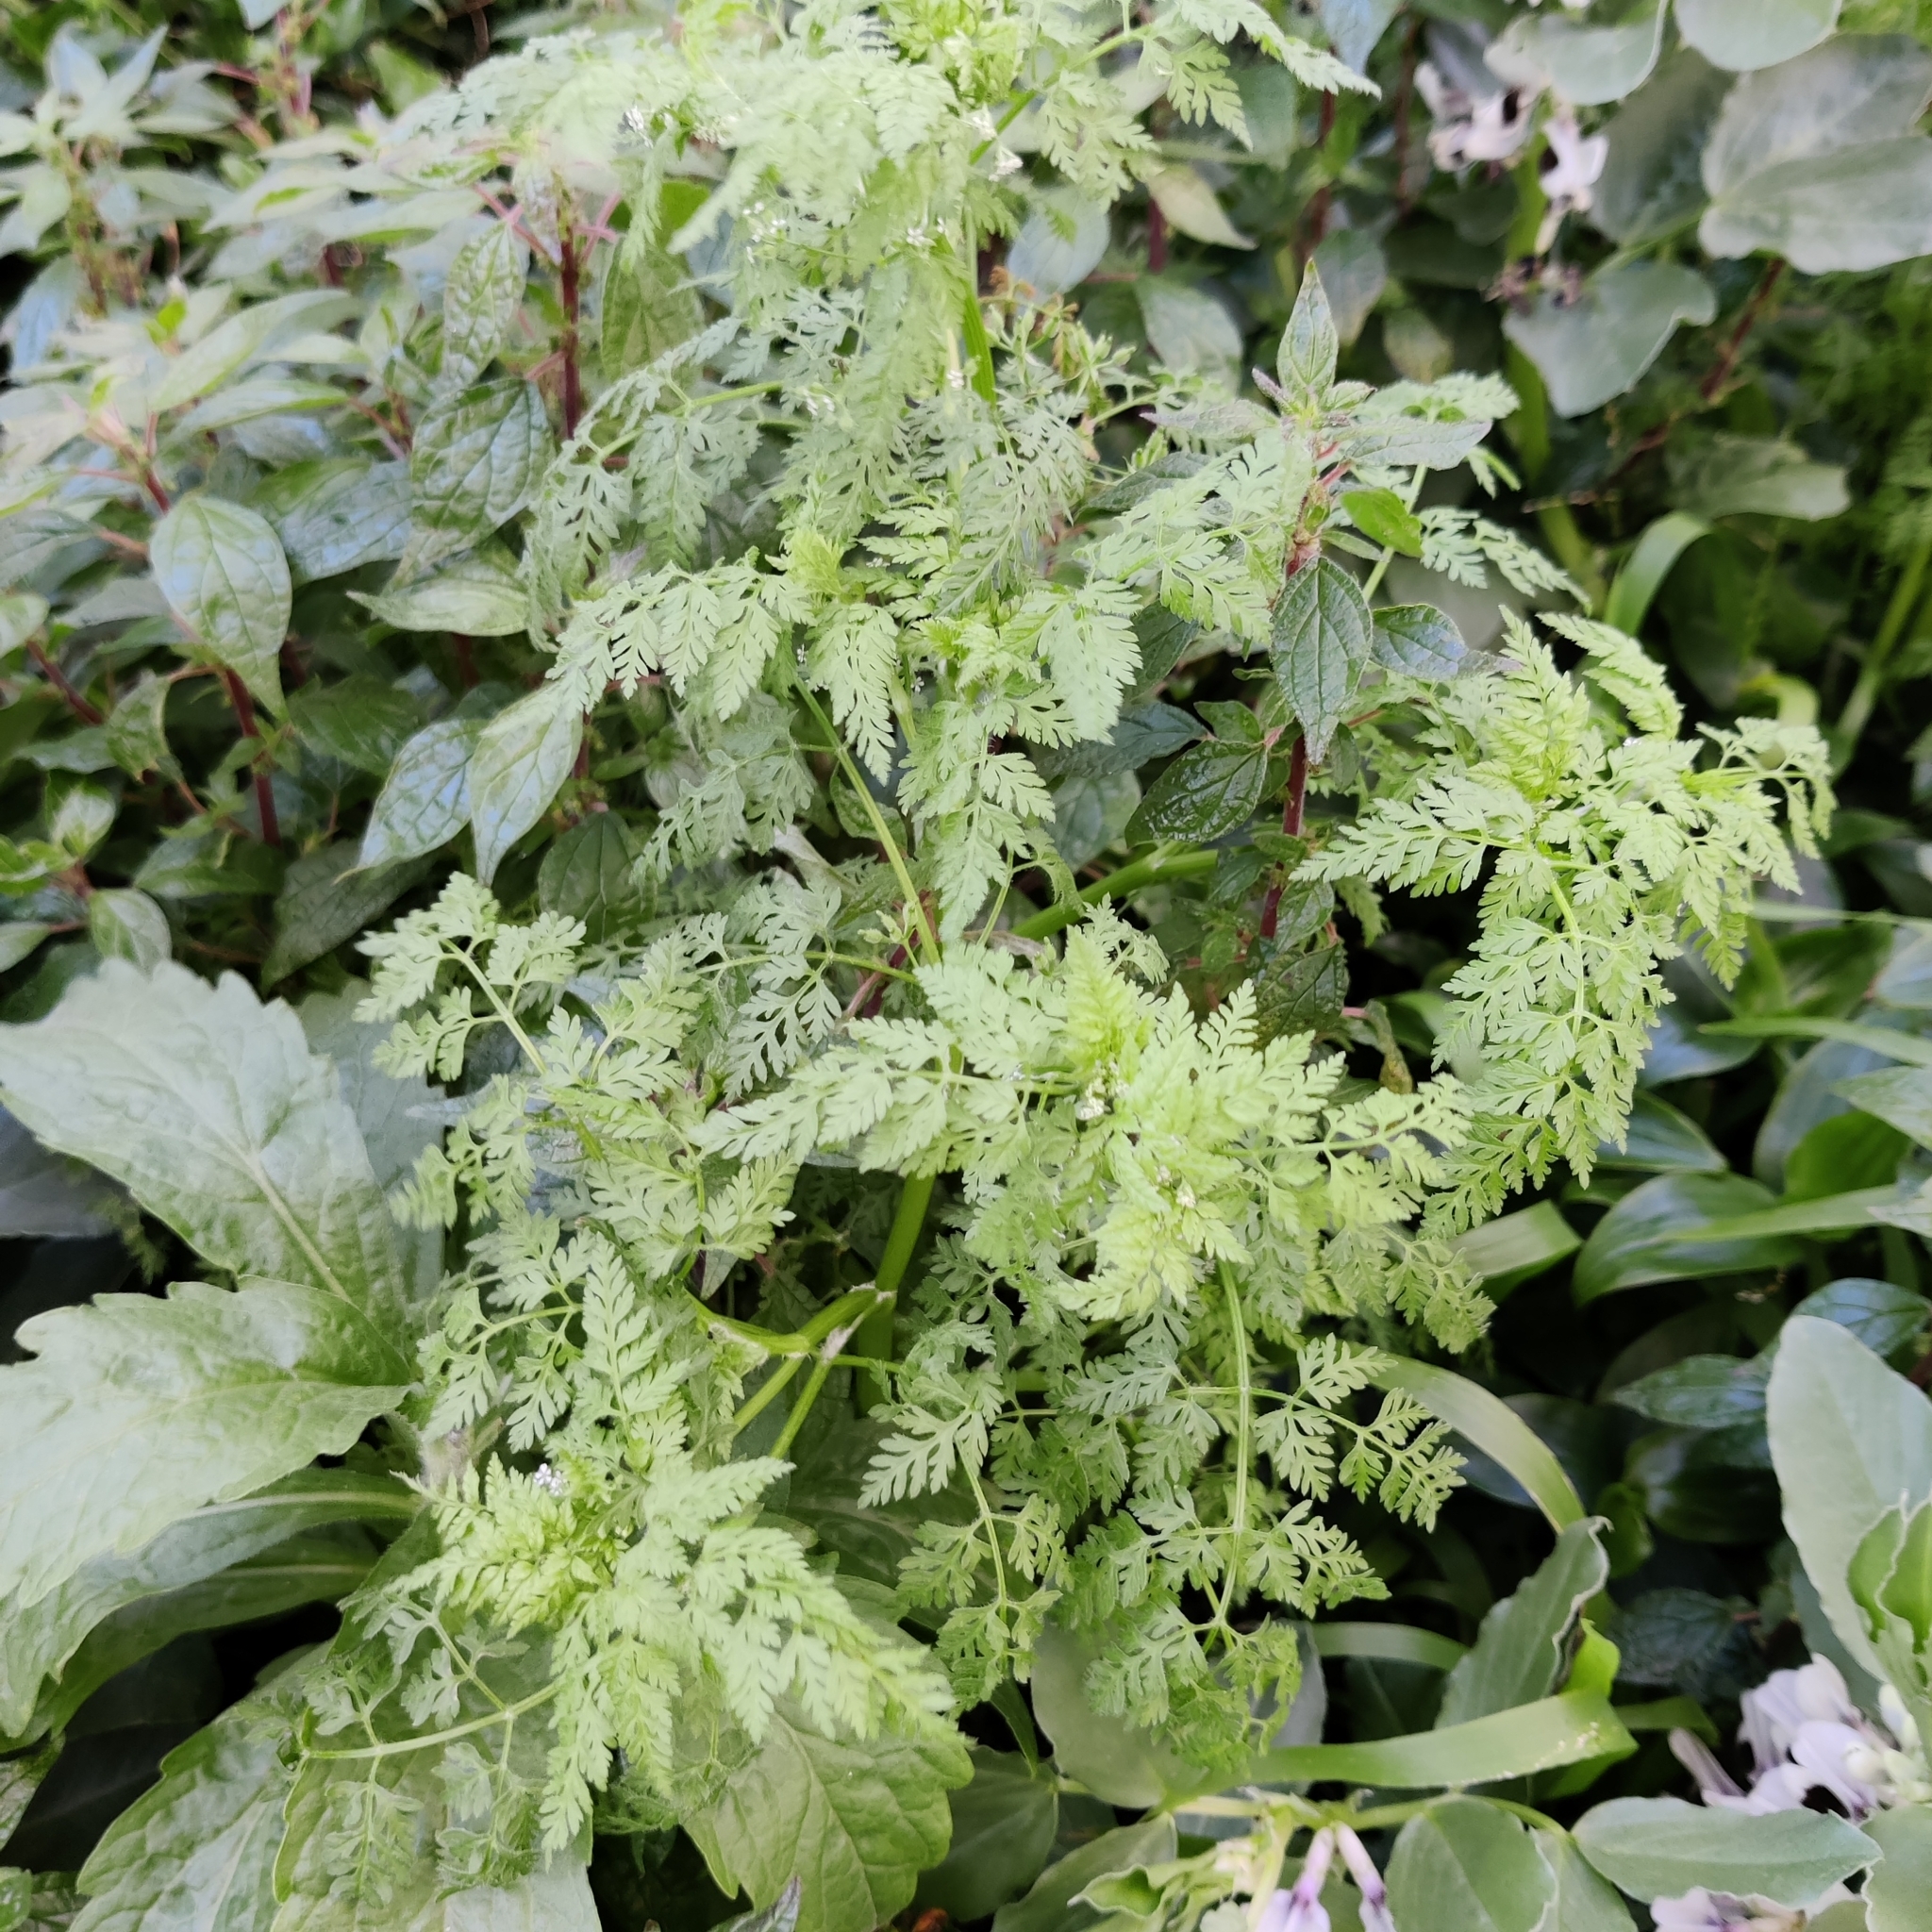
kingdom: Plantae
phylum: Tracheophyta
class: Magnoliopsida
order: Apiales
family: Apiaceae
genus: Anthriscus
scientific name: Anthriscus caucalis
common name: Bur chervil
